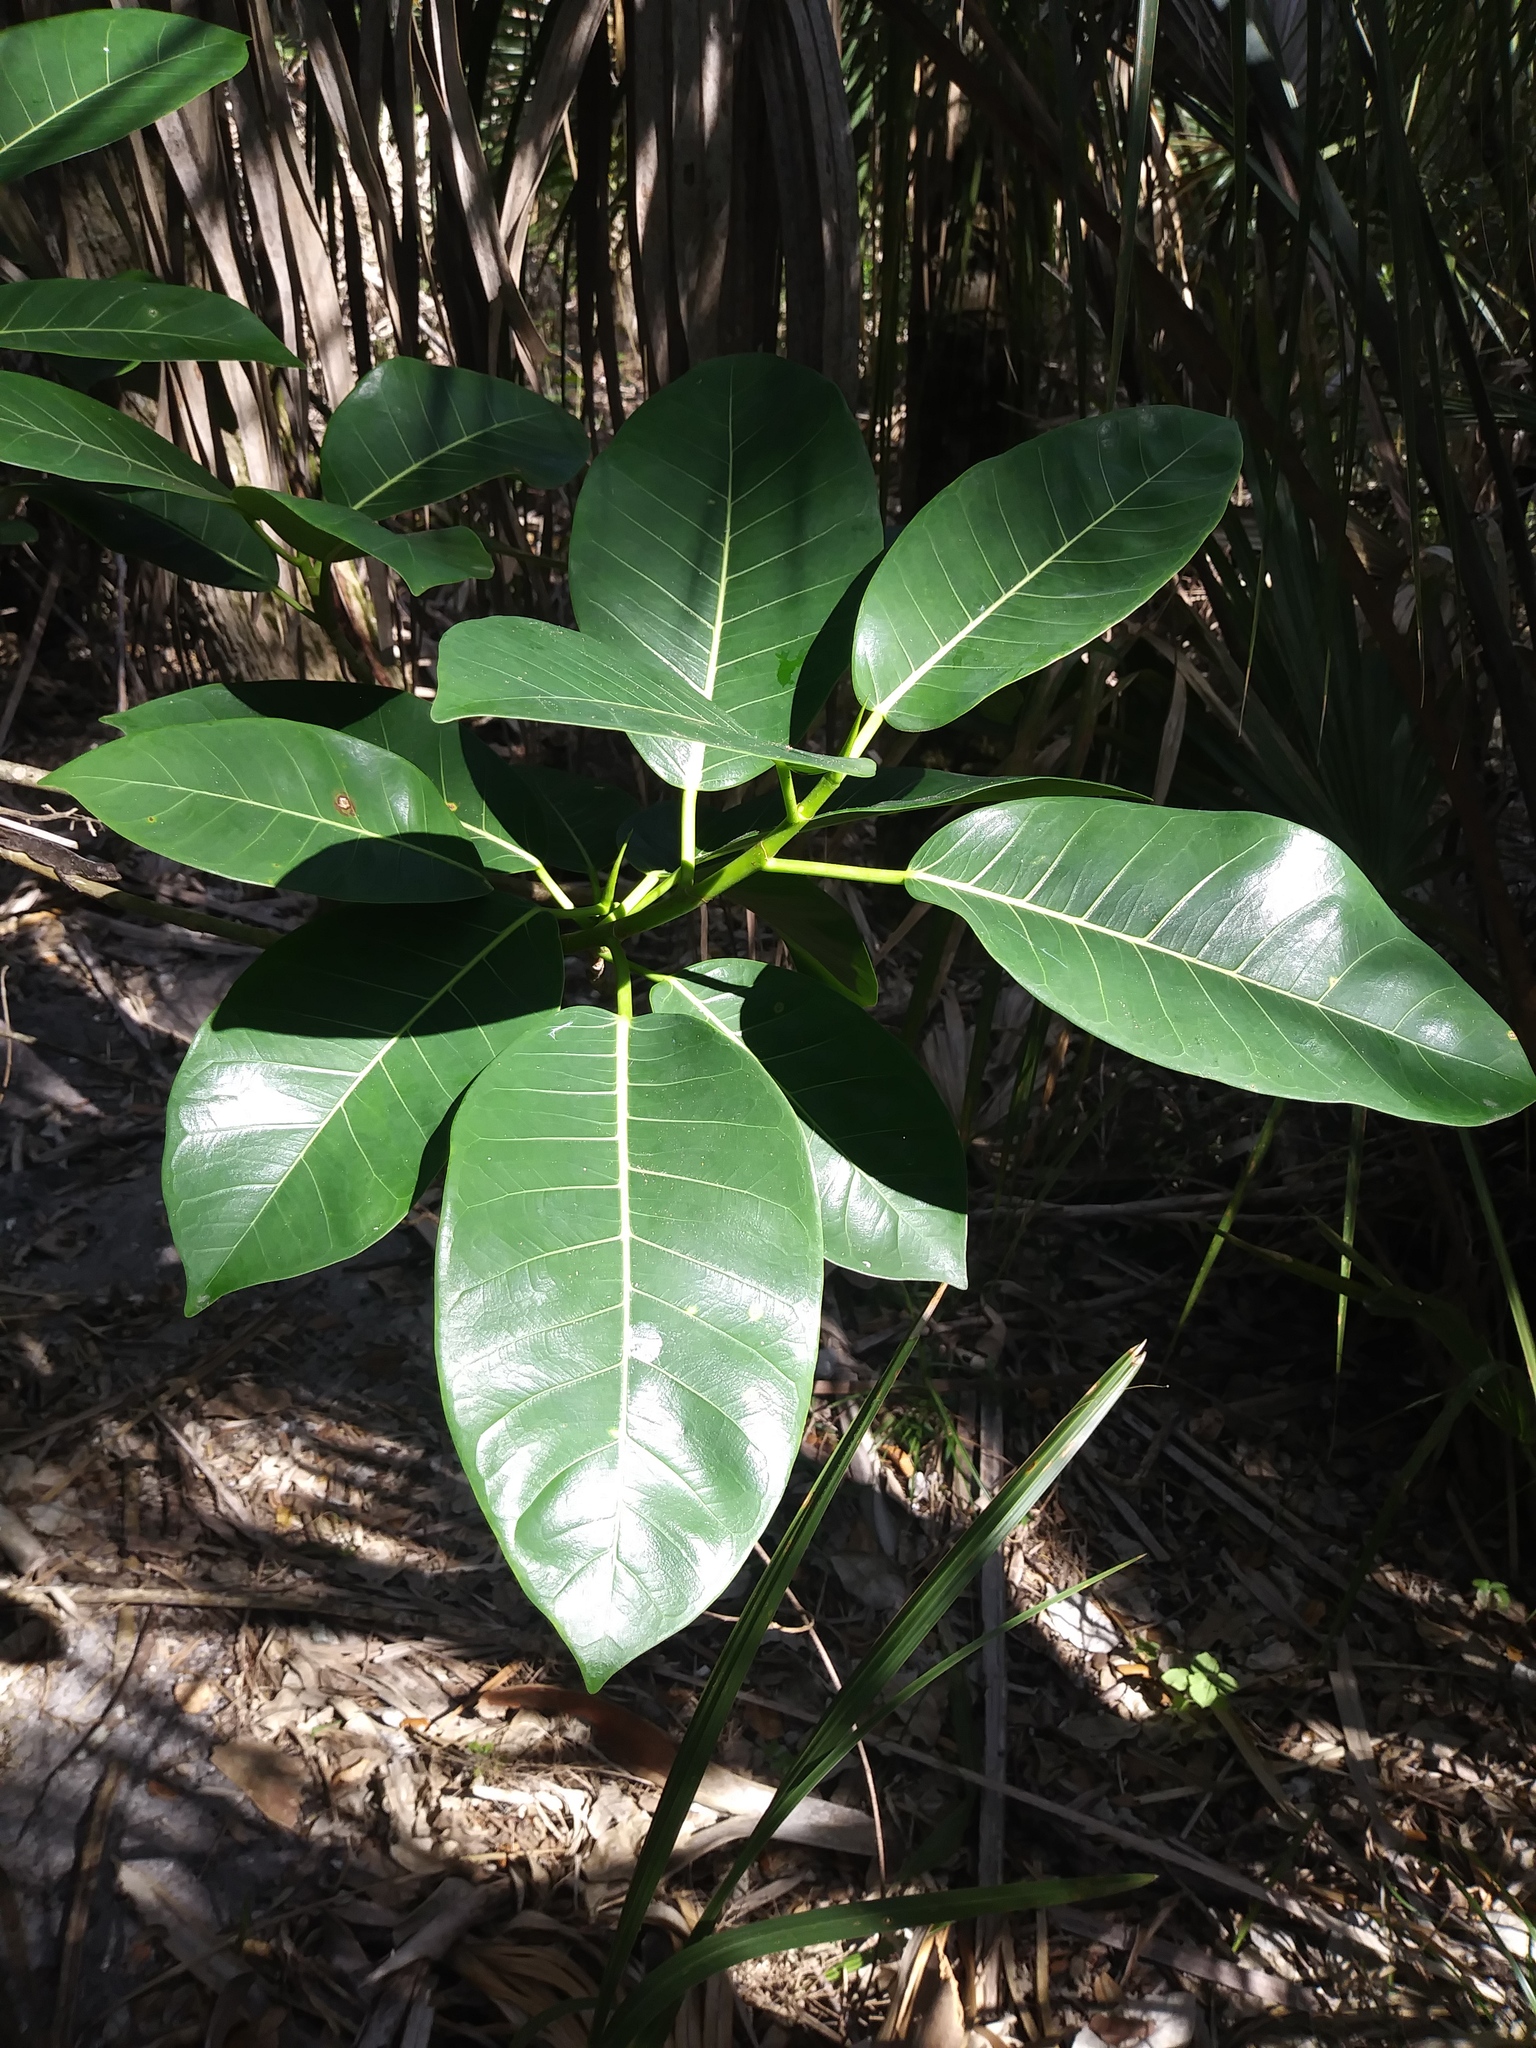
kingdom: Plantae
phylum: Tracheophyta
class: Magnoliopsida
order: Rosales
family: Moraceae
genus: Ficus
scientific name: Ficus aurea
